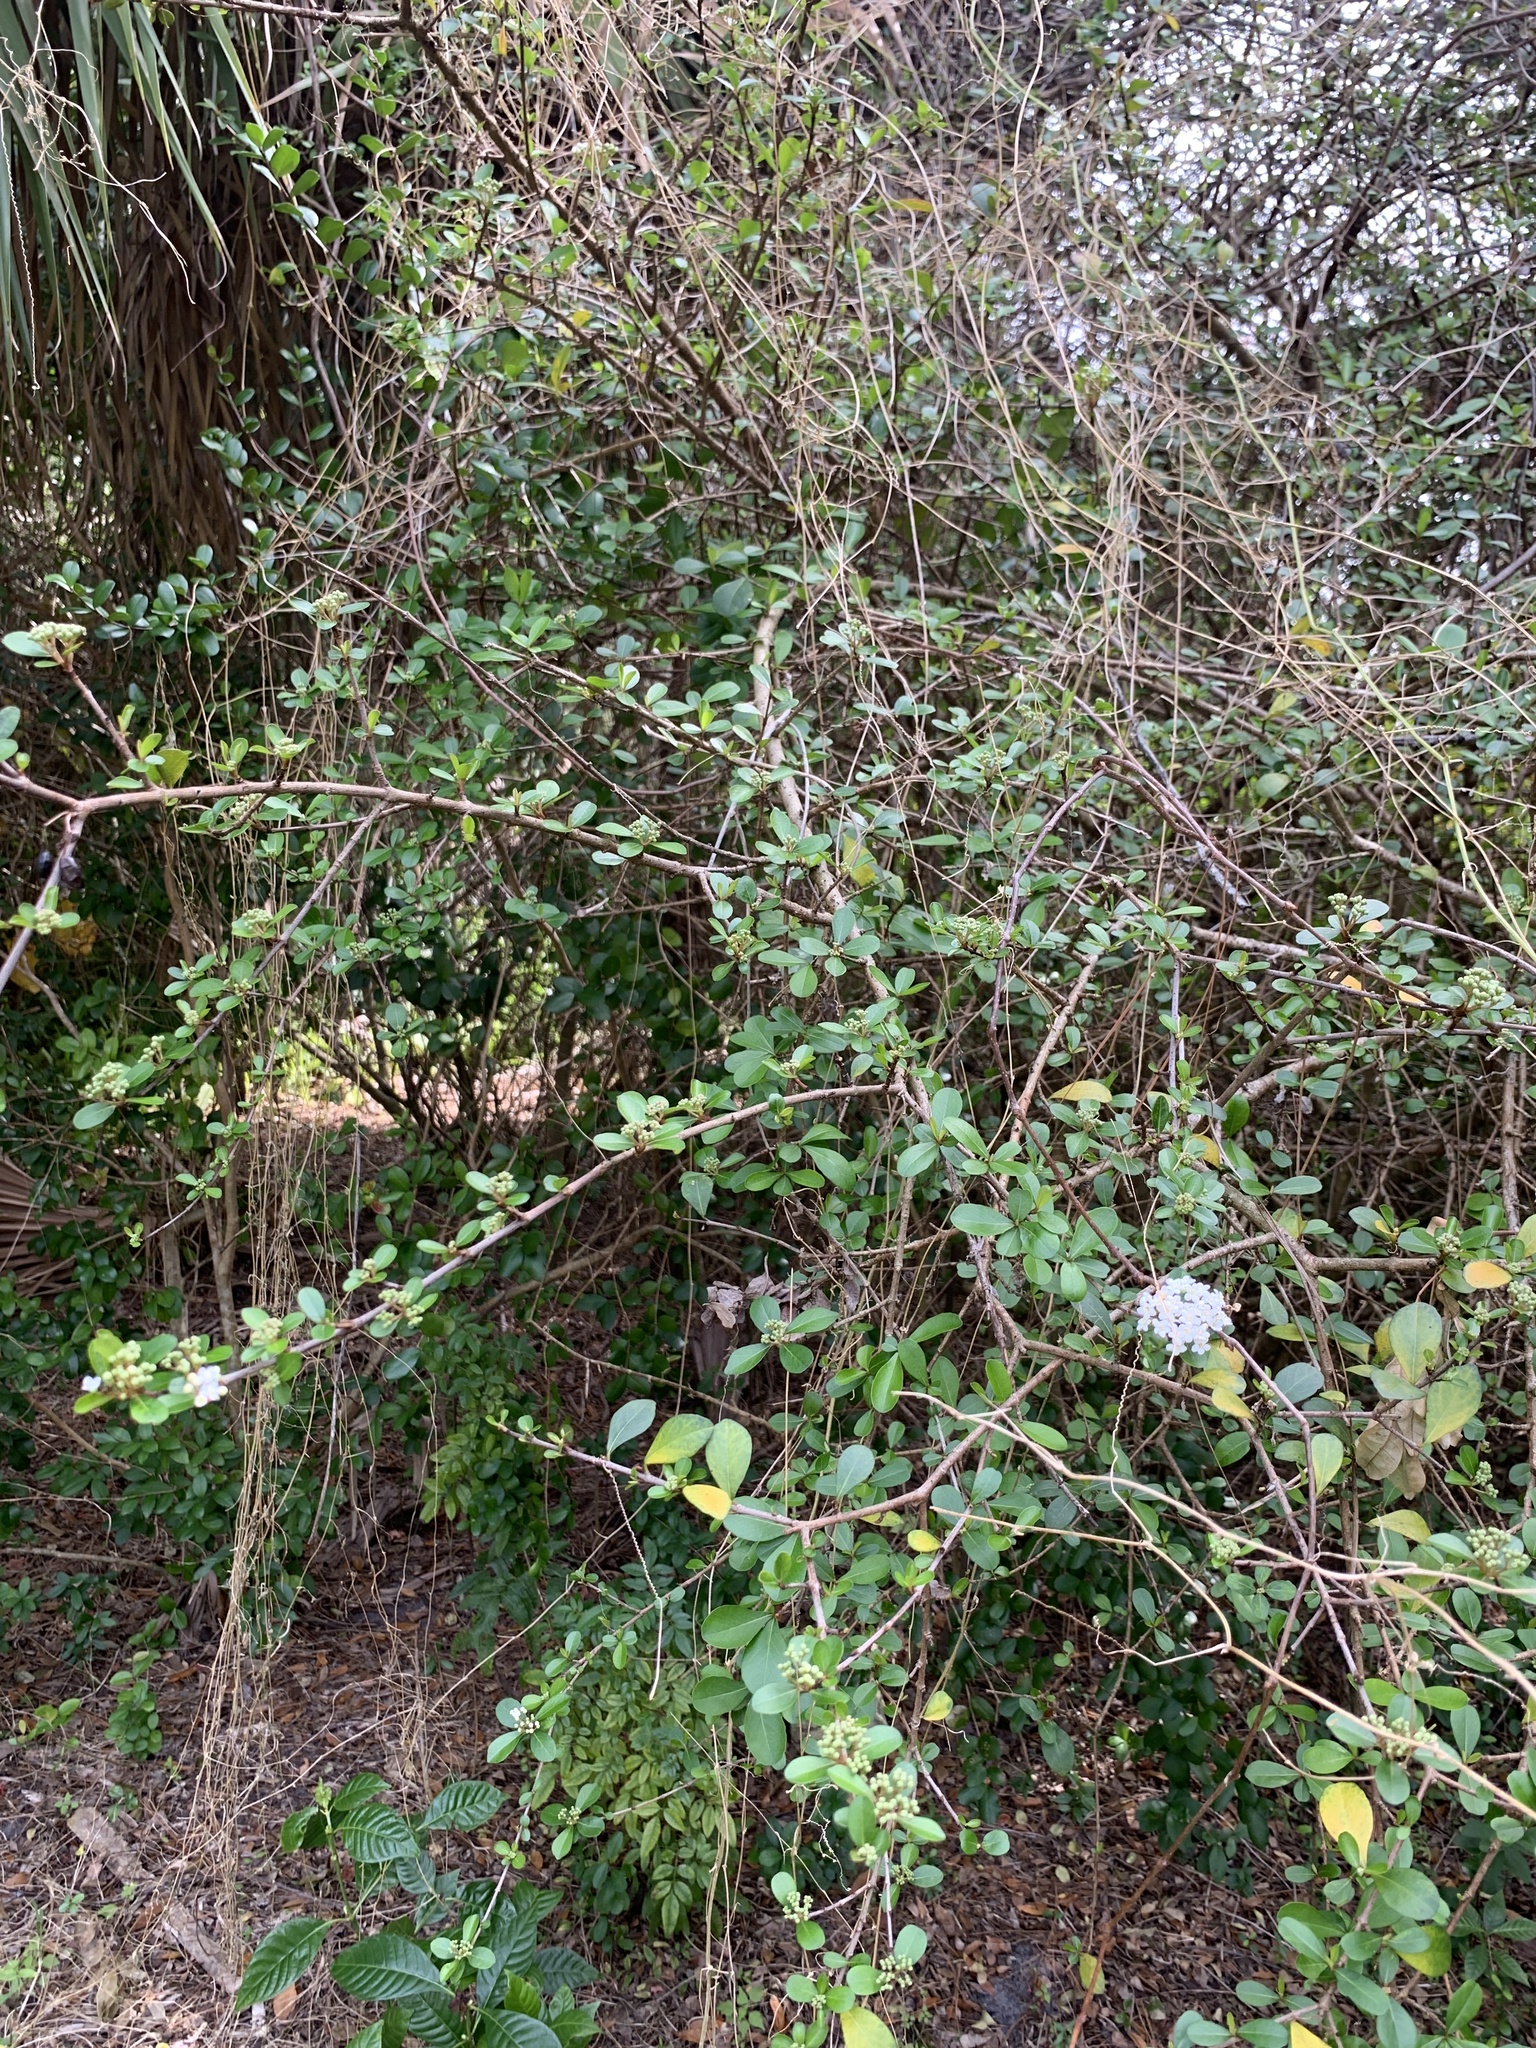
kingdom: Plantae
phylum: Tracheophyta
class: Magnoliopsida
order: Dipsacales
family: Viburnaceae
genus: Viburnum
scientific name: Viburnum obovatum
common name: Walter's viburnum
